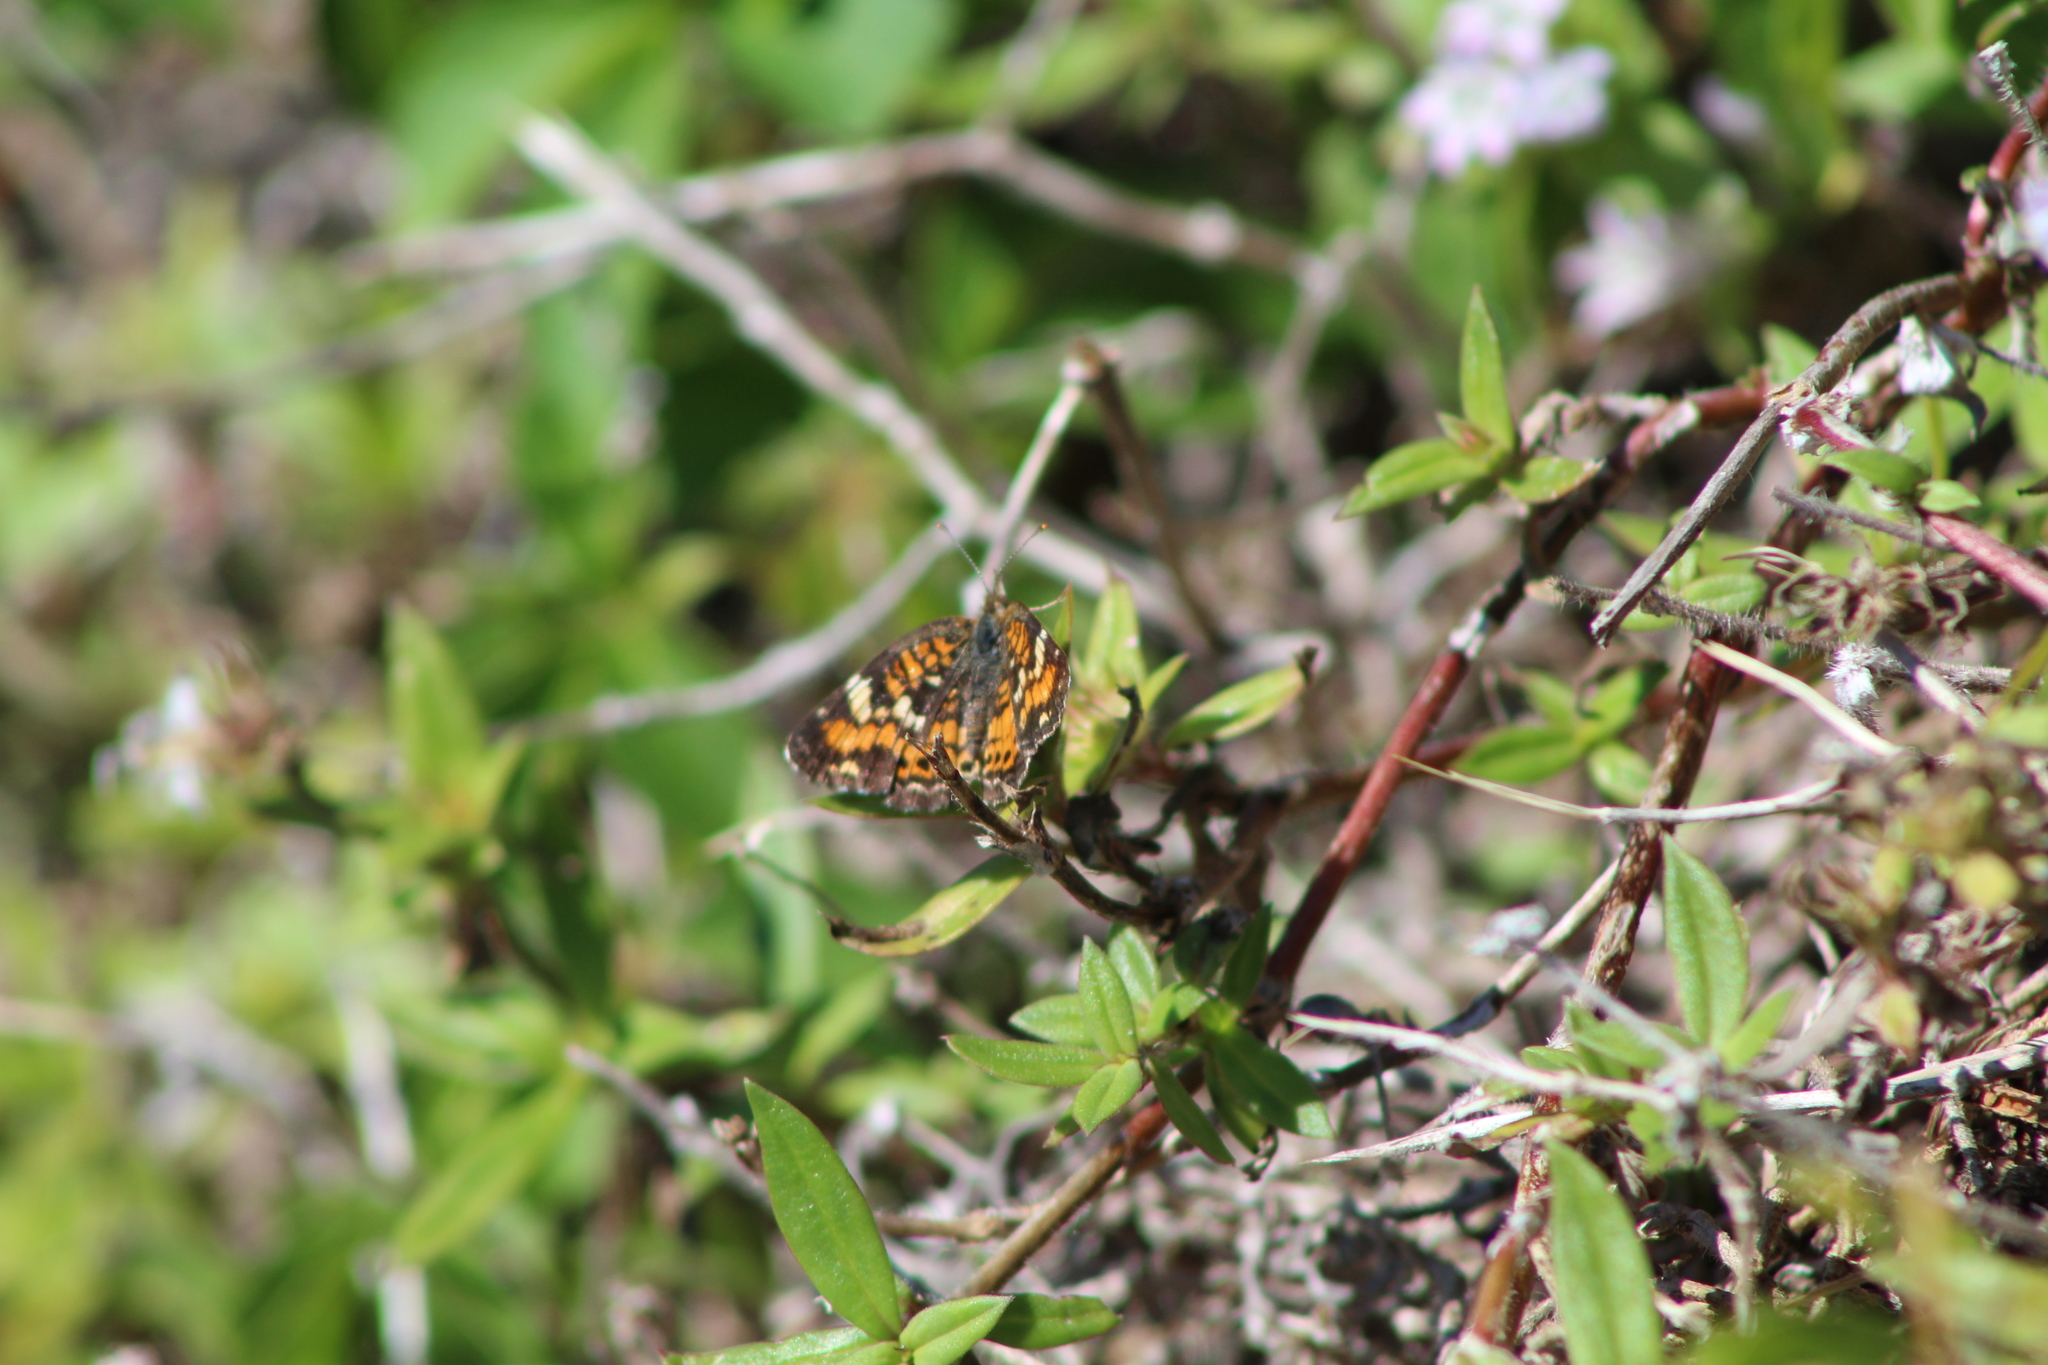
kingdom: Animalia
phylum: Arthropoda
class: Insecta
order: Lepidoptera
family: Nymphalidae
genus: Phyciodes
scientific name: Phyciodes phaon
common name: Phaon crescent
